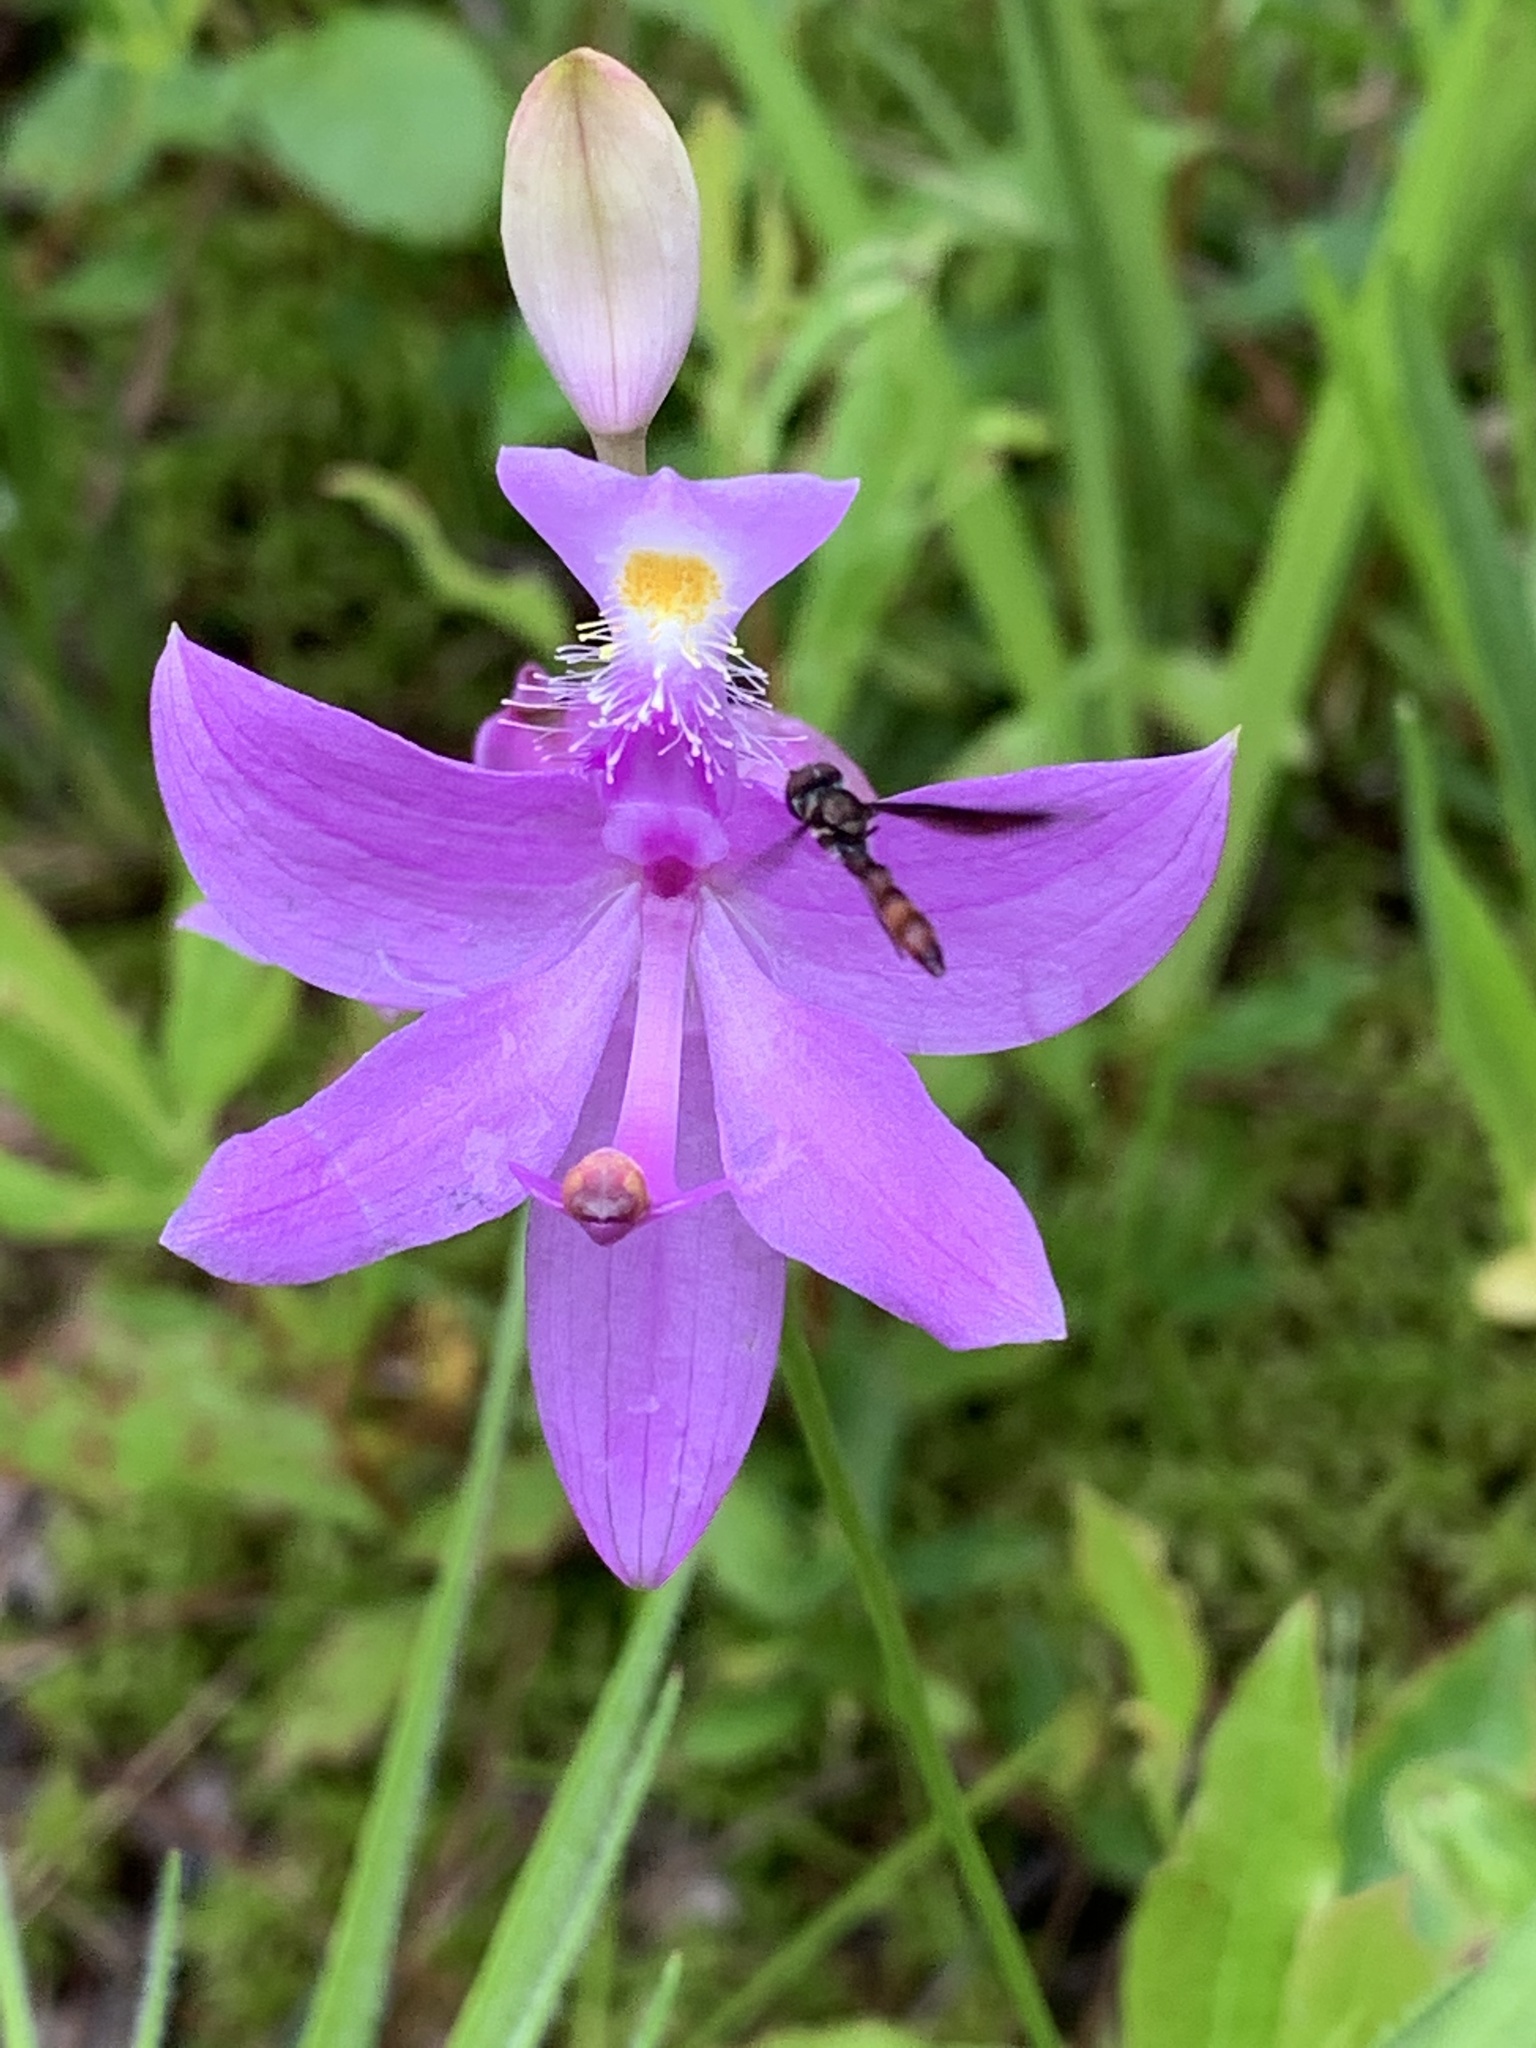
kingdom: Plantae
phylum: Tracheophyta
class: Liliopsida
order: Asparagales
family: Orchidaceae
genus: Calopogon
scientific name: Calopogon tuberosus
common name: Grass-pink
